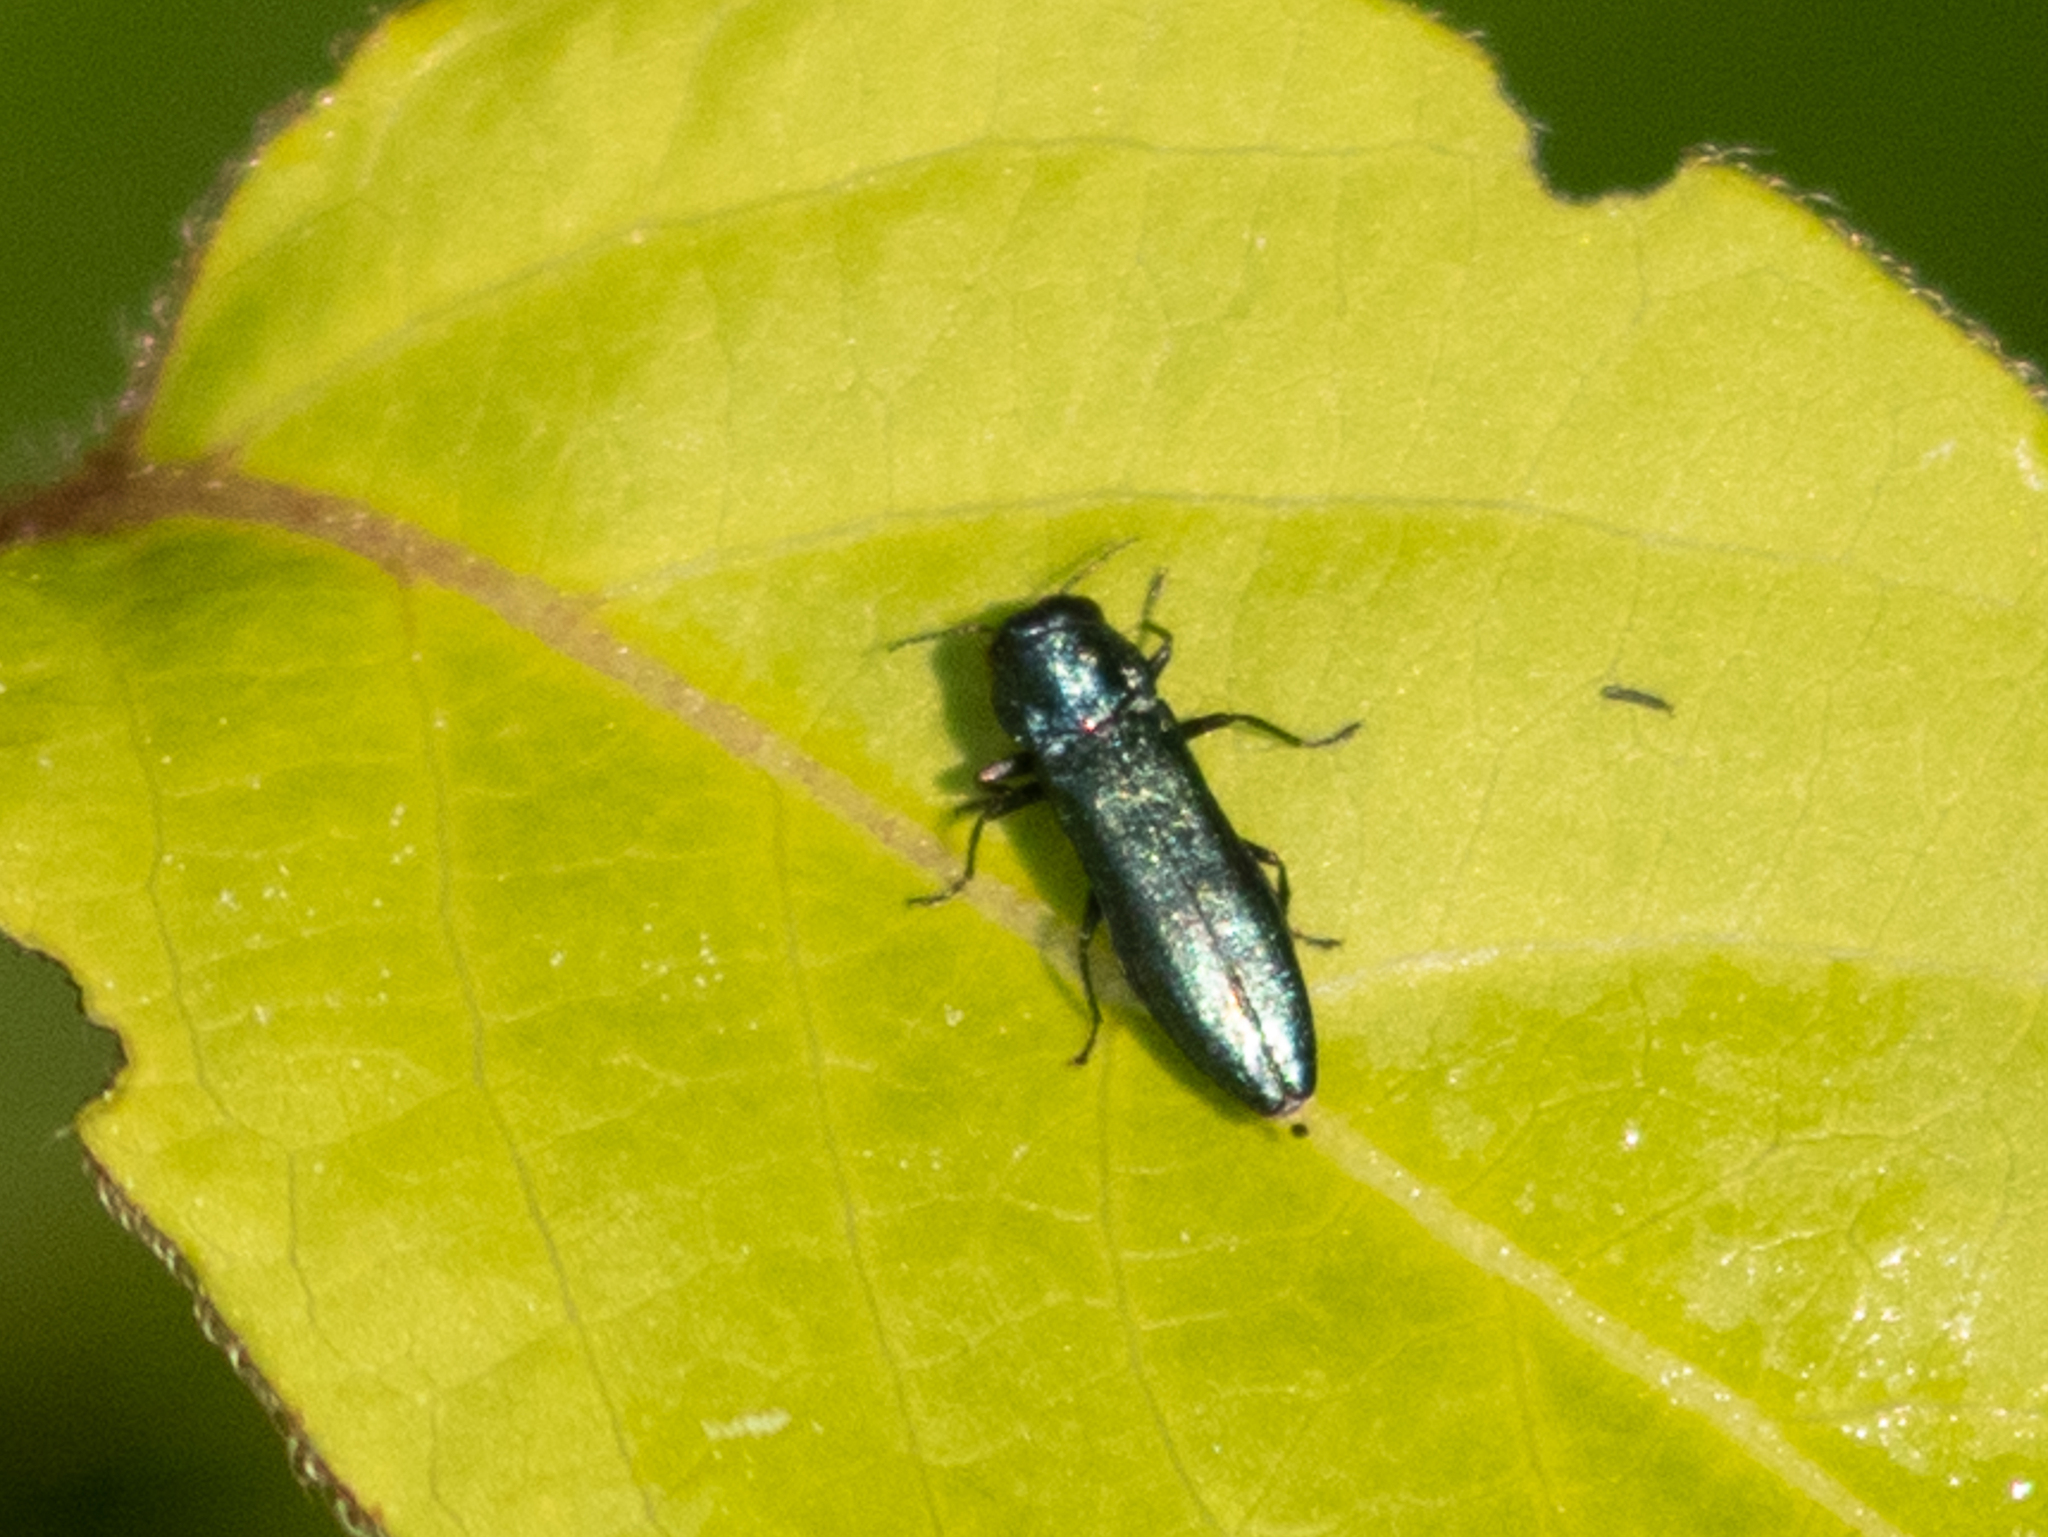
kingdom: Animalia
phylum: Arthropoda
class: Insecta
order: Coleoptera
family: Buprestidae
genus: Agrilus
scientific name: Agrilus cyanescens
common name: Bluish borer beetle
